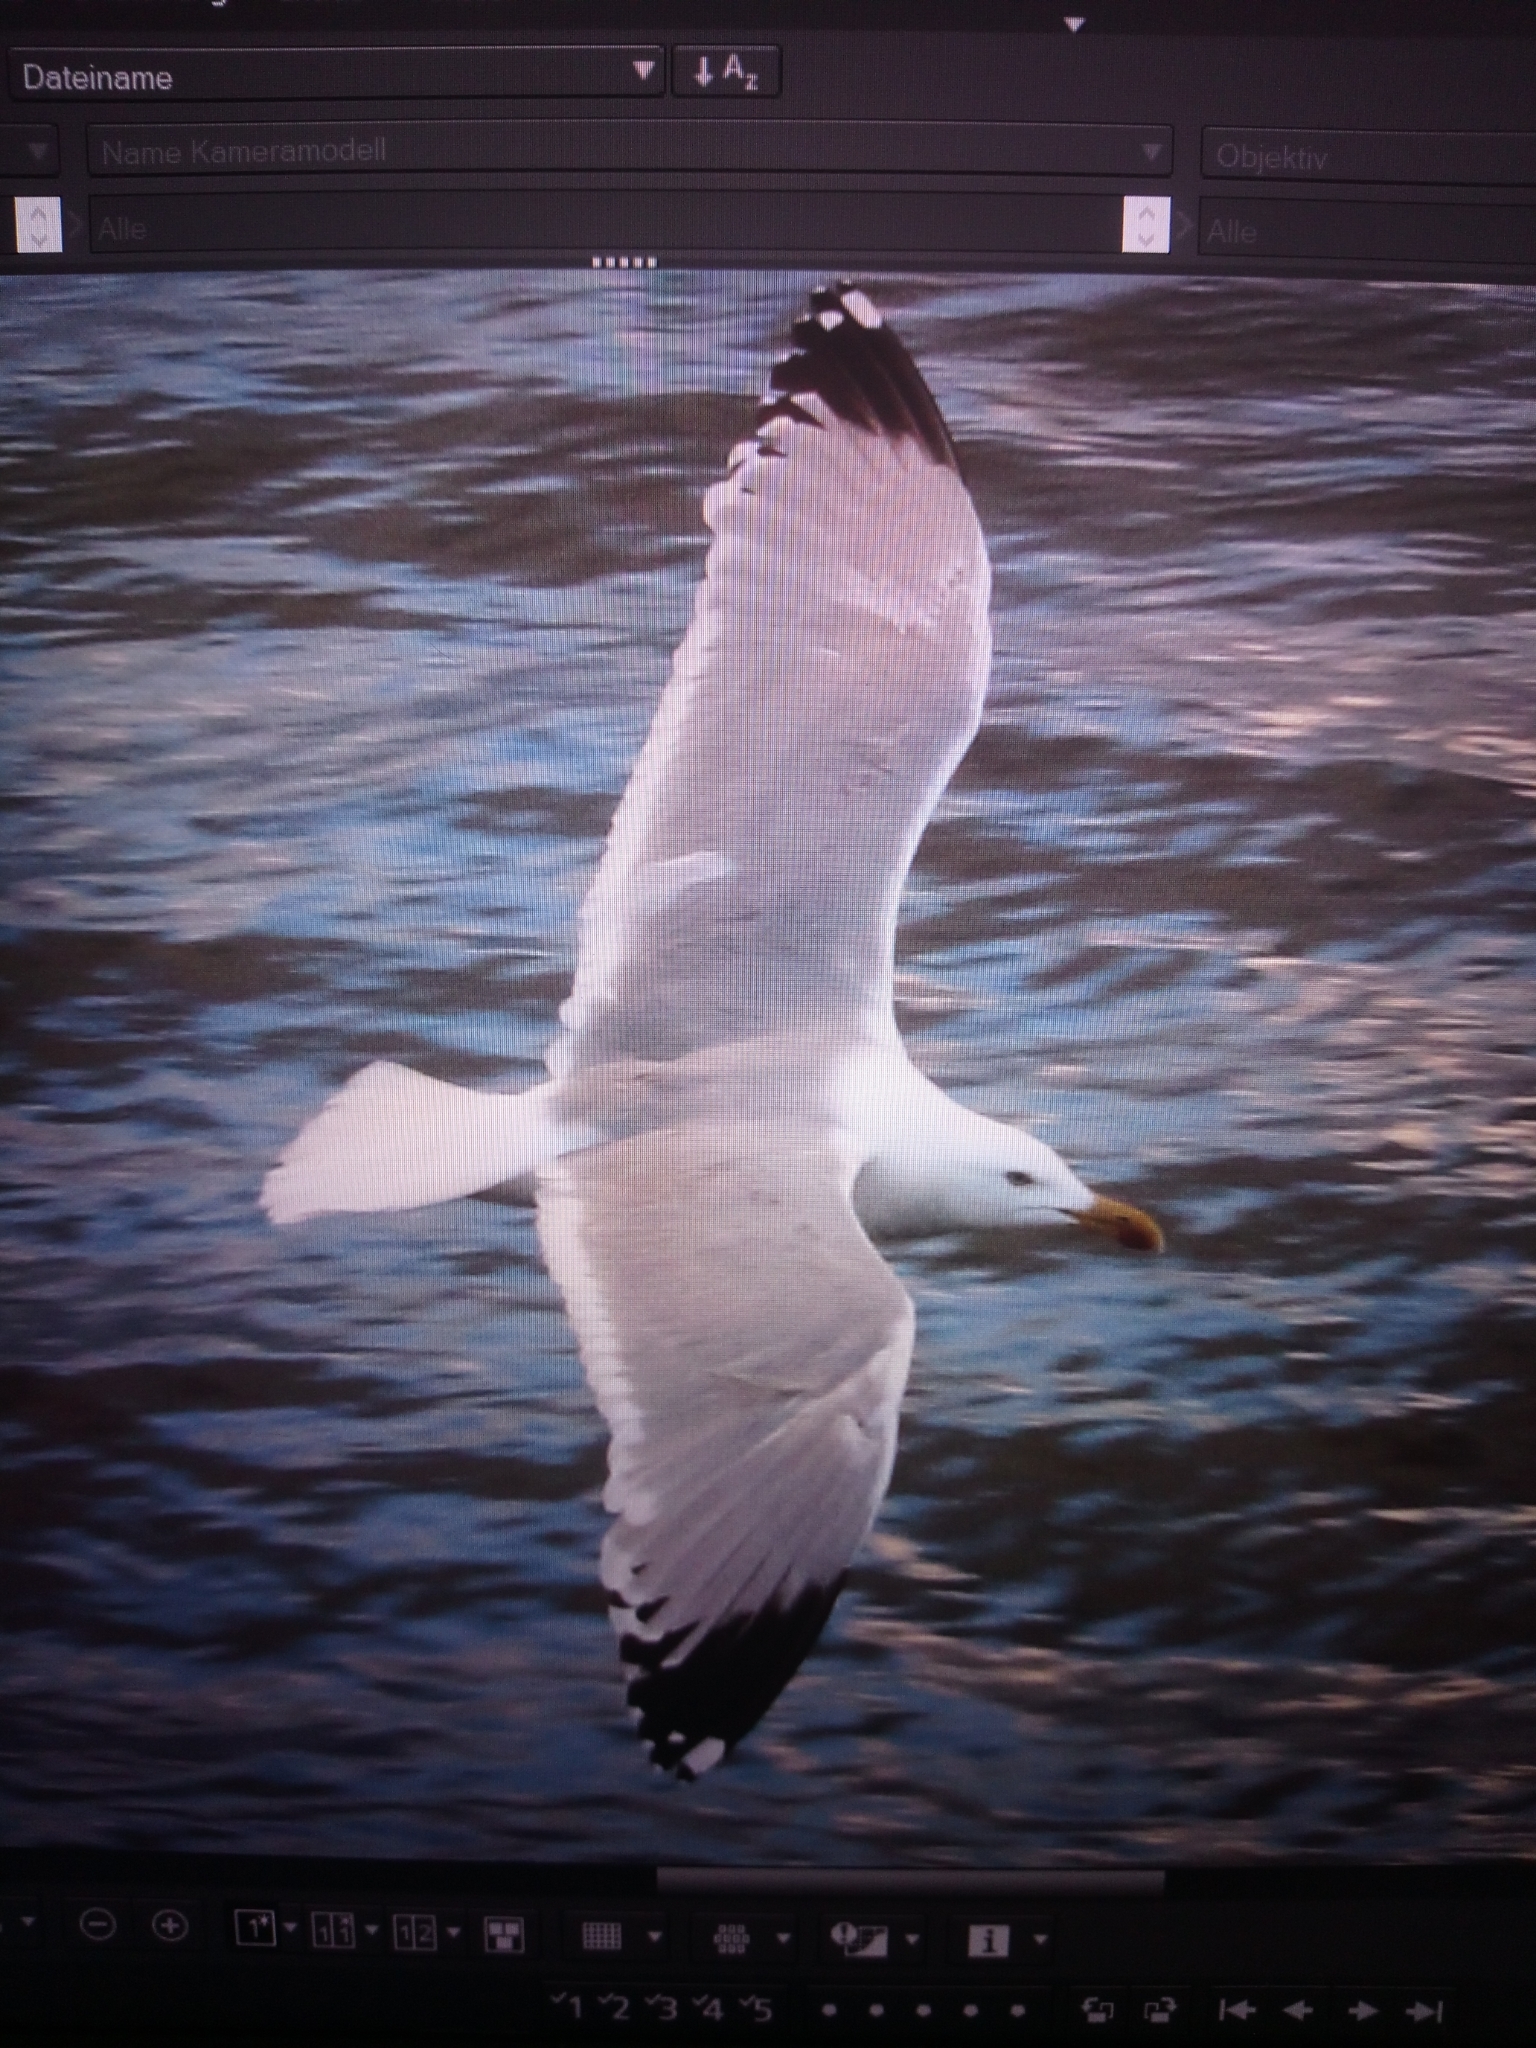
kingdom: Animalia
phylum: Chordata
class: Aves
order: Charadriiformes
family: Laridae
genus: Larus
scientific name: Larus argentatus
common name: Herring gull
